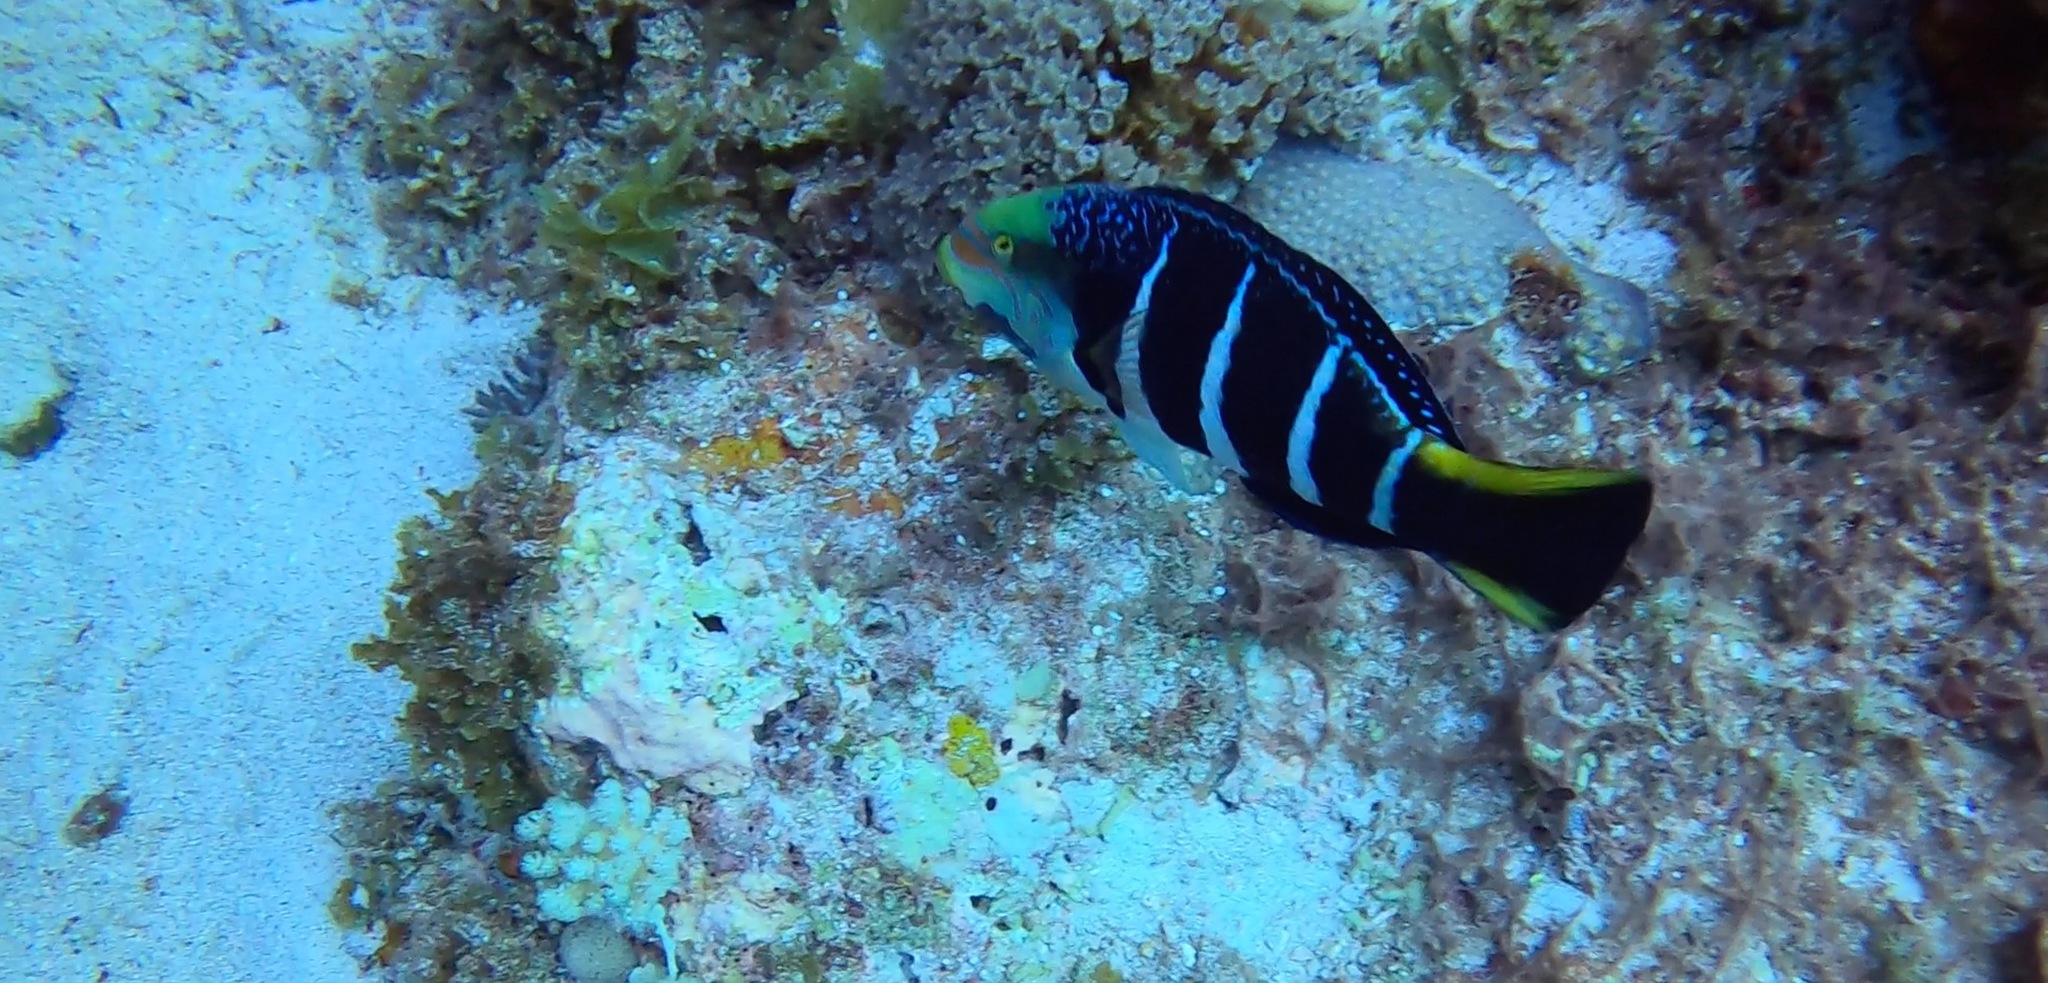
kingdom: Animalia
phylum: Chordata
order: Perciformes
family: Labridae
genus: Hemigymnus
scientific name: Hemigymnus fasciatus
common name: Barred thicklip
